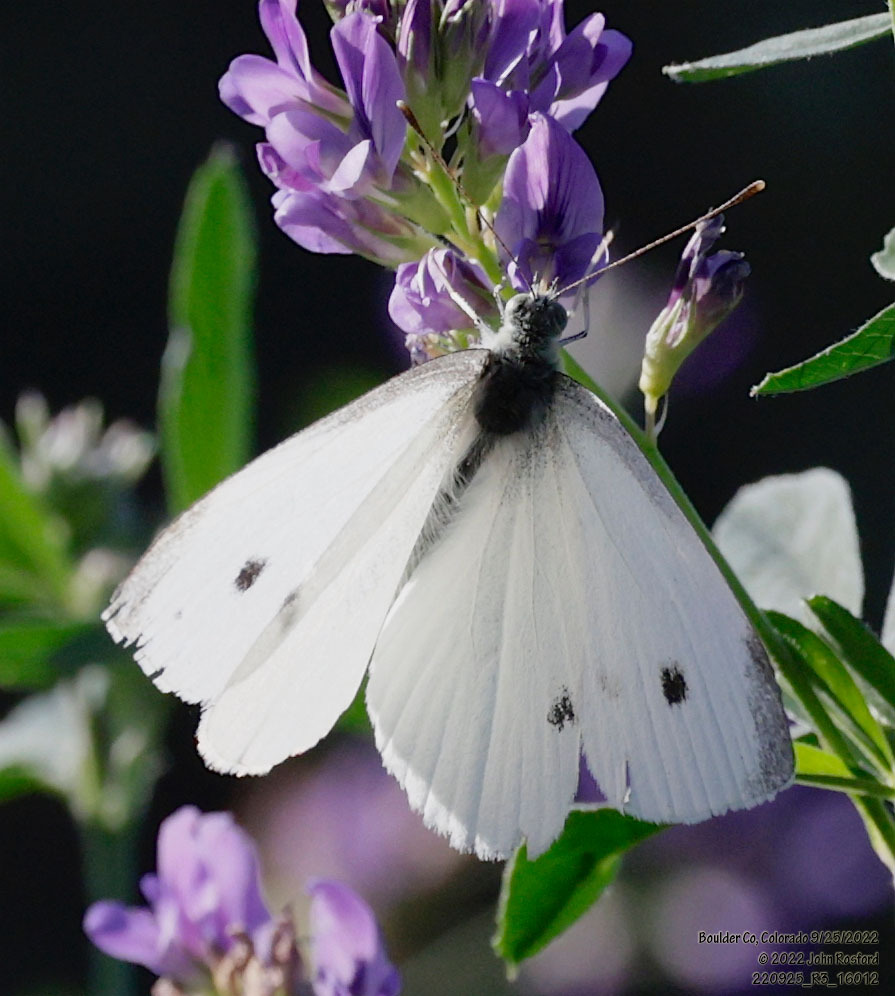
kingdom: Animalia
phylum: Arthropoda
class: Insecta
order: Lepidoptera
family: Pieridae
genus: Pieris
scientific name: Pieris rapae
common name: Small white
